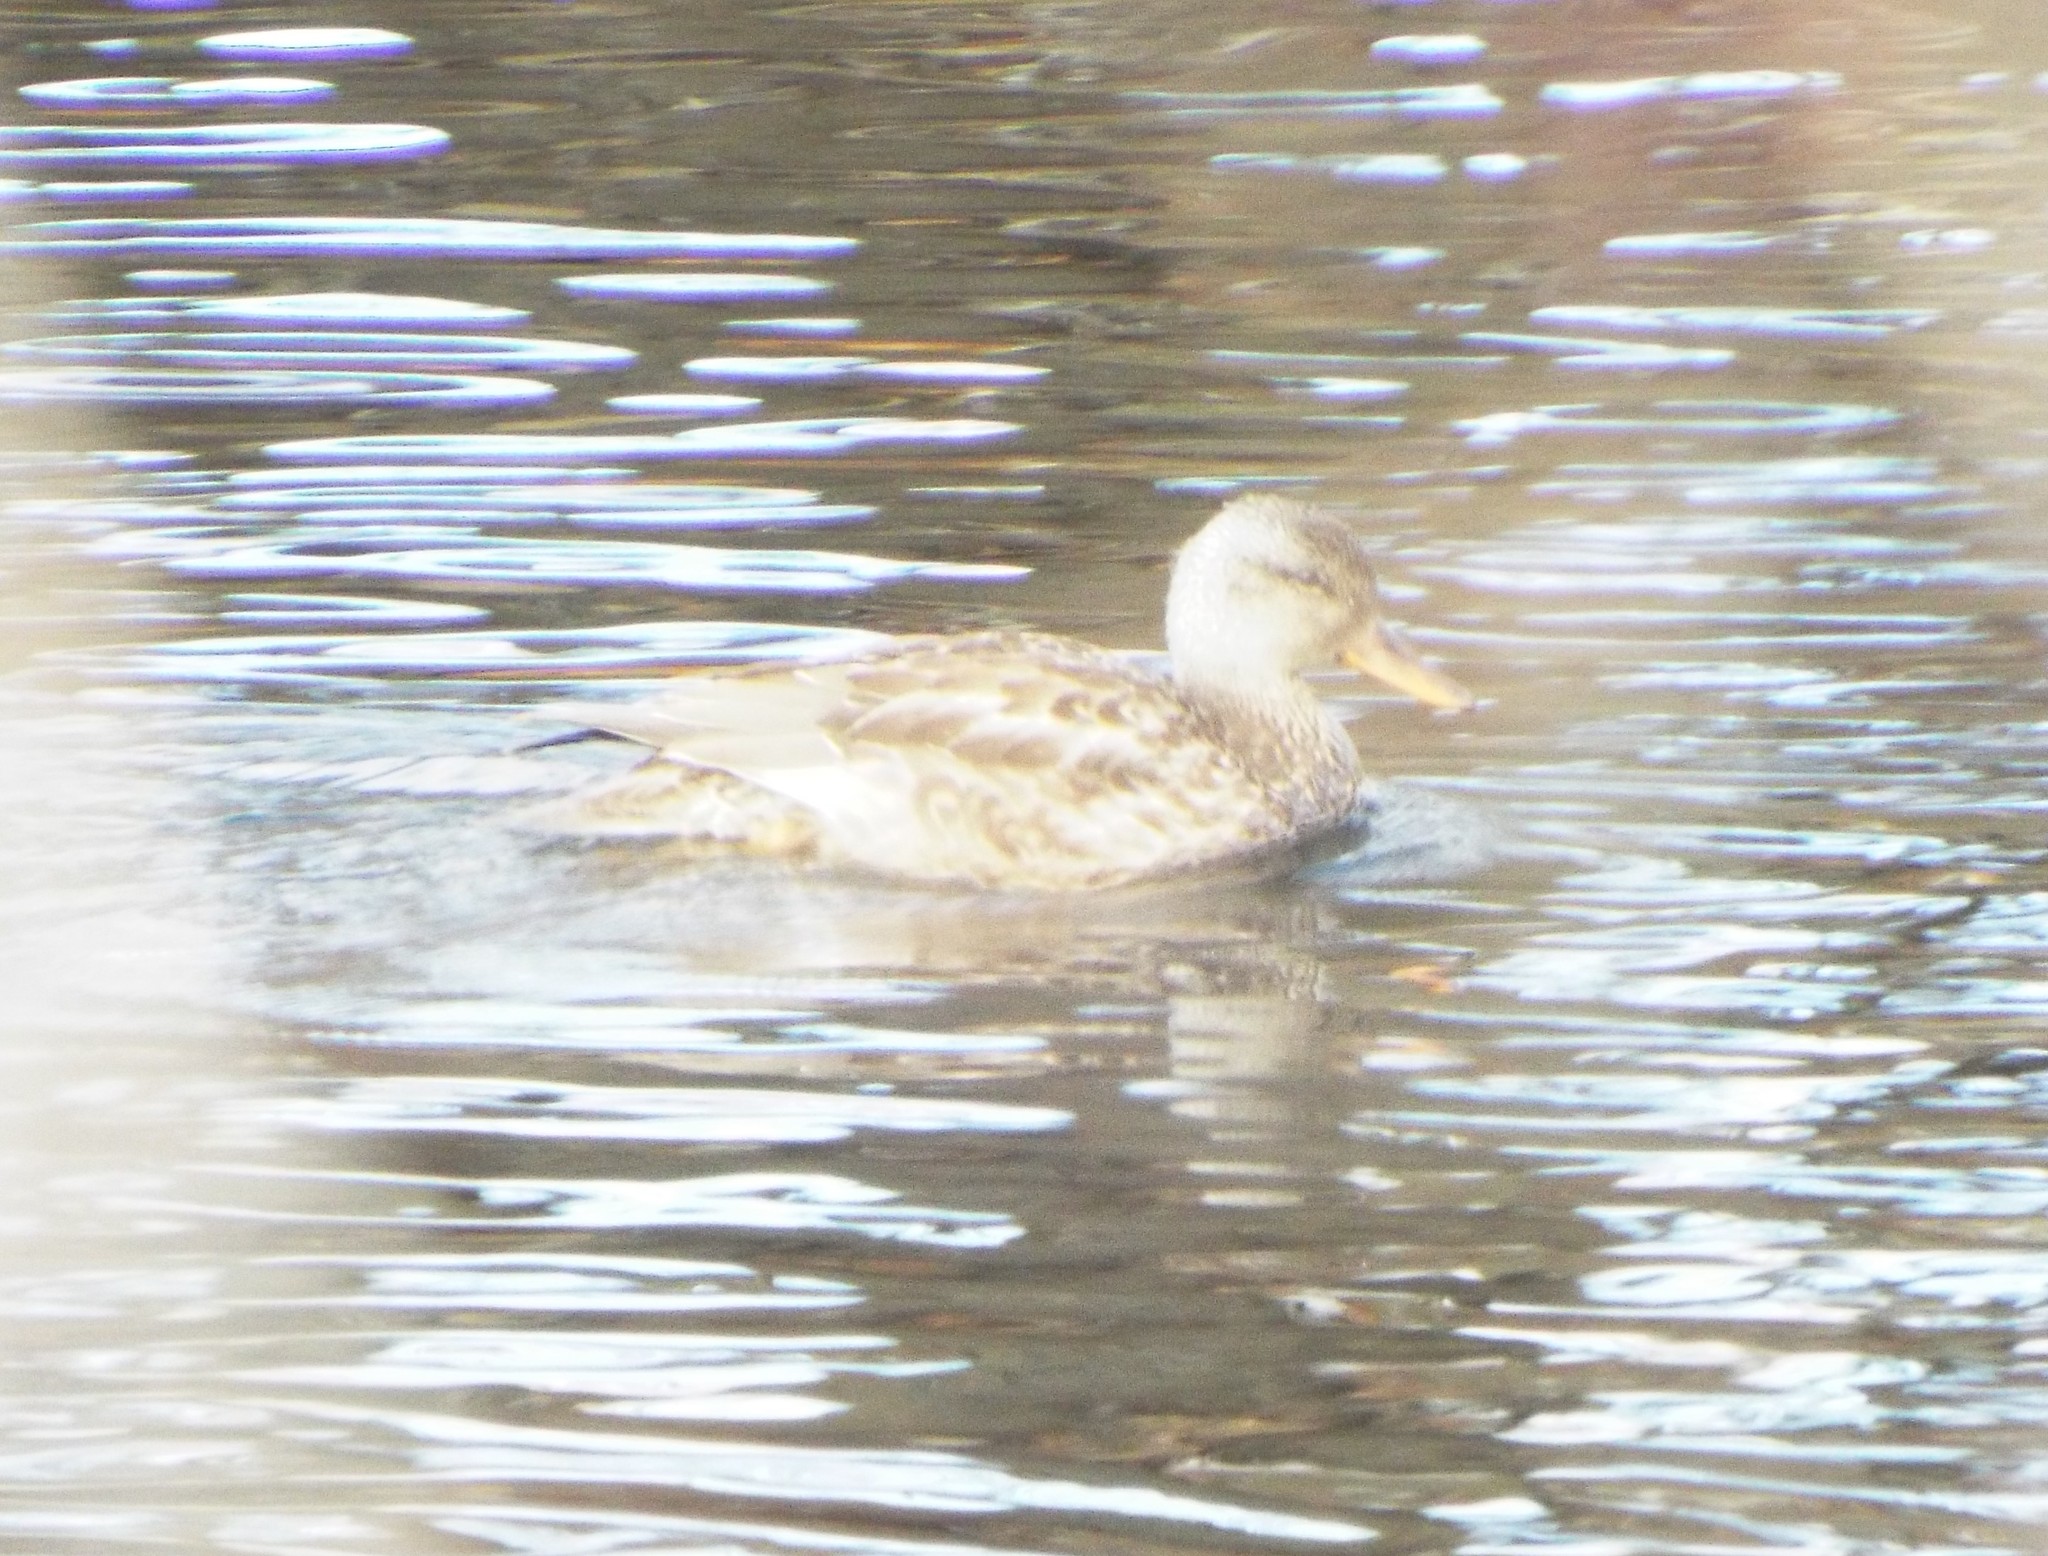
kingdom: Animalia
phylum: Chordata
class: Aves
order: Anseriformes
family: Anatidae
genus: Mareca
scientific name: Mareca strepera
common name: Gadwall
